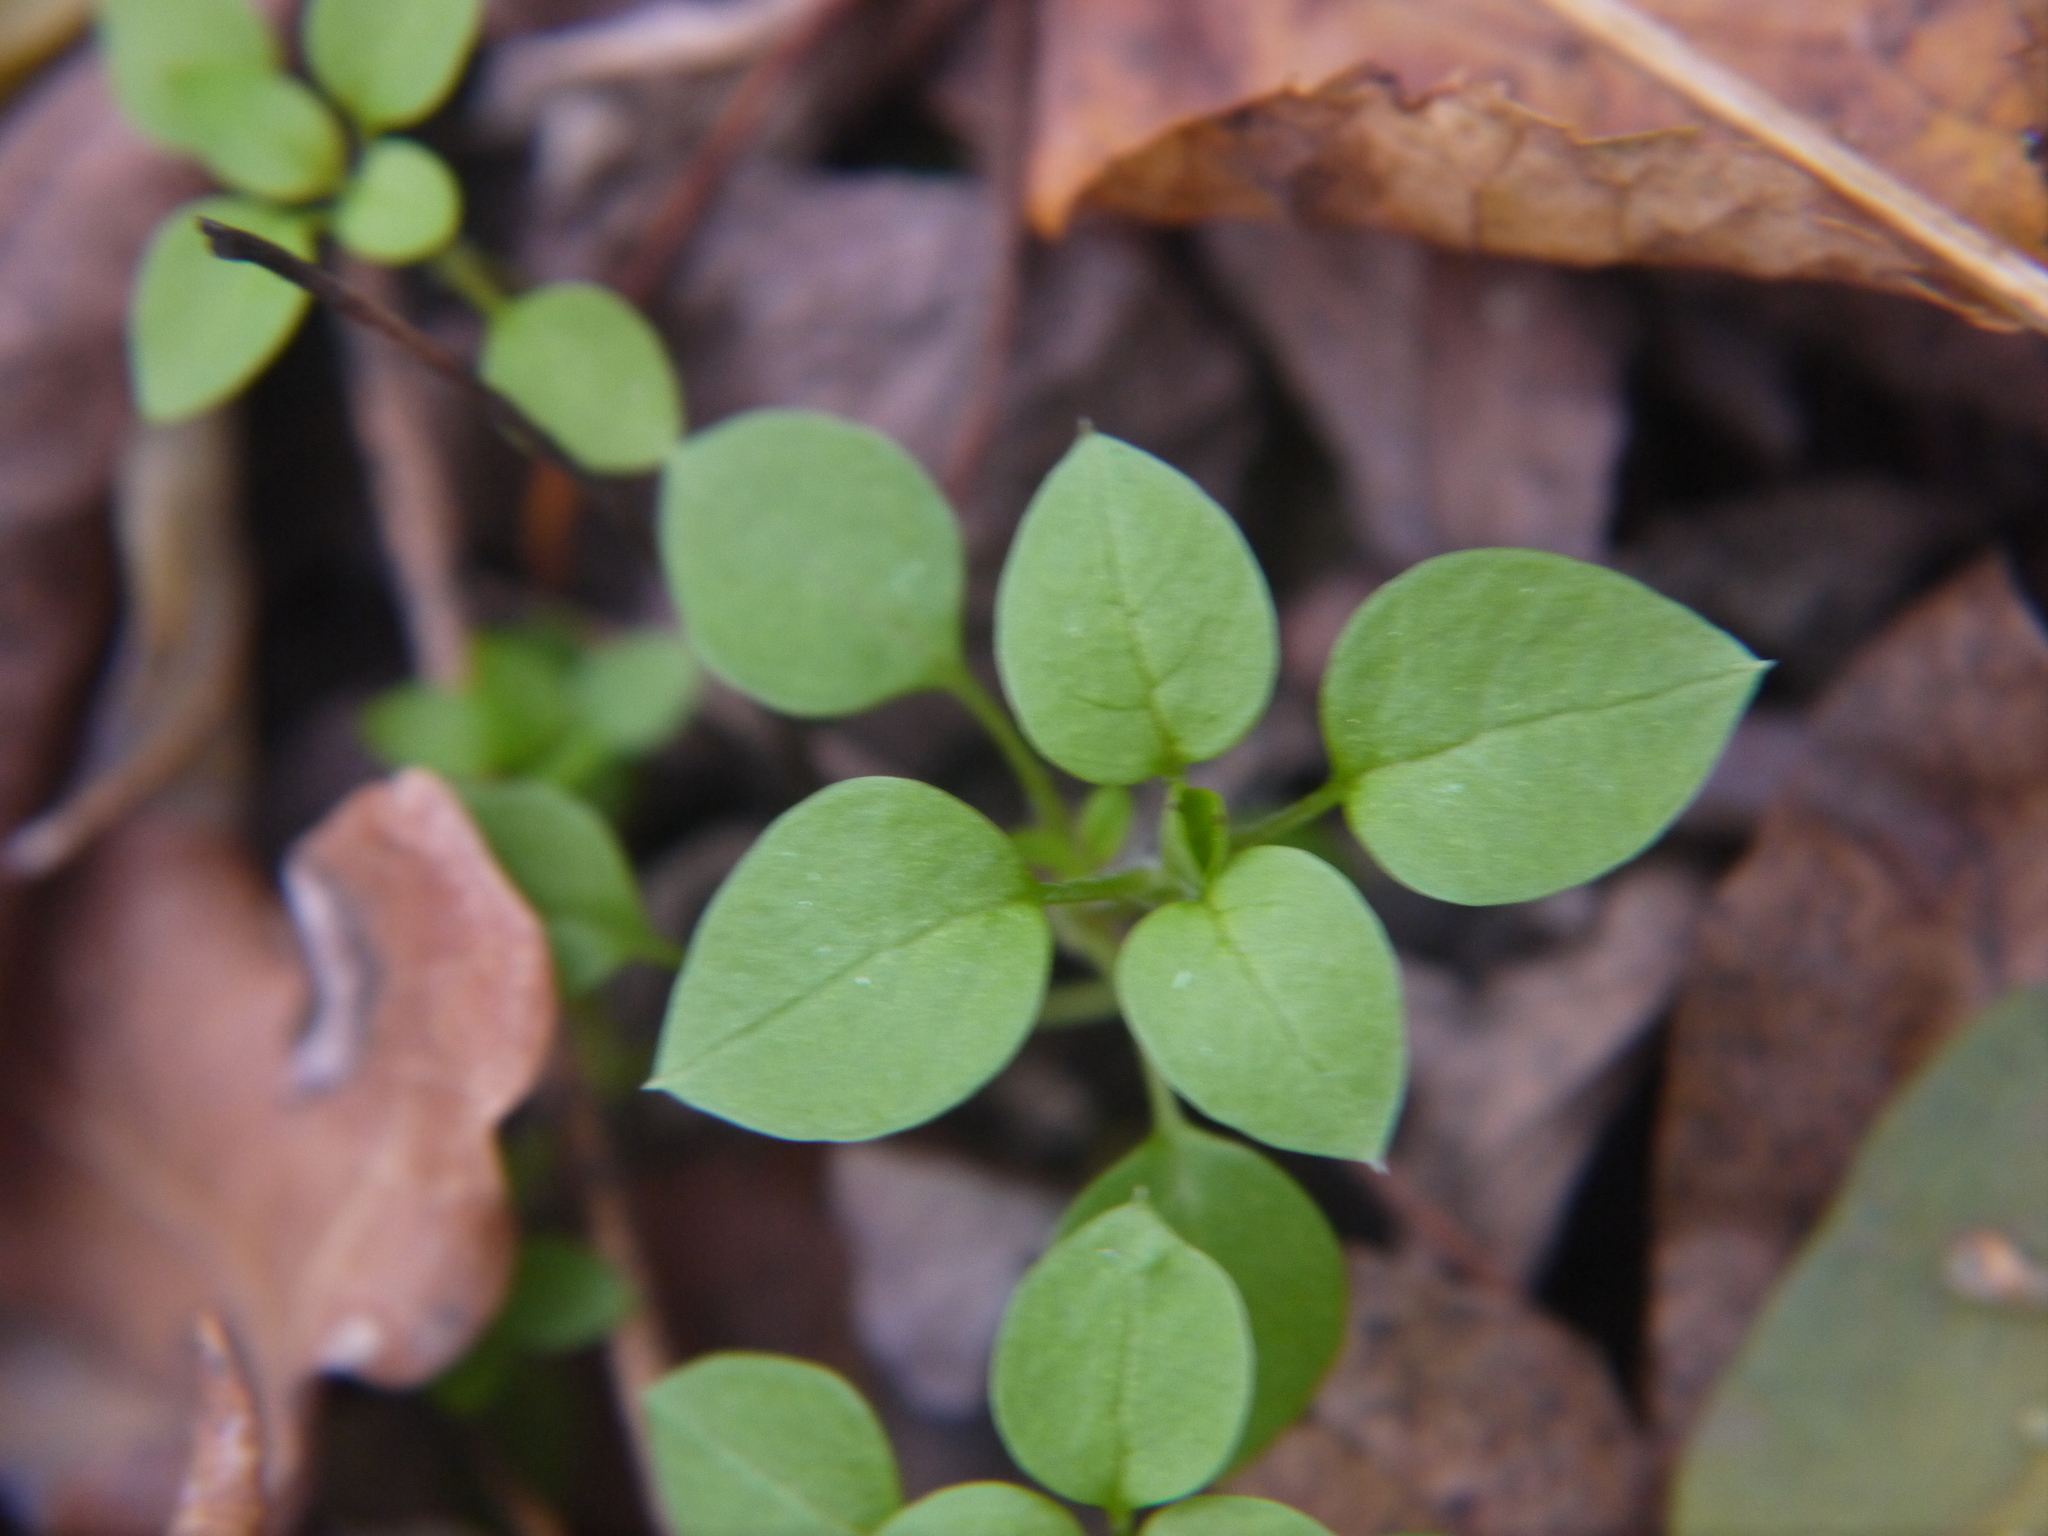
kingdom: Plantae
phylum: Tracheophyta
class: Magnoliopsida
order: Caryophyllales
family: Caryophyllaceae
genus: Stellaria
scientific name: Stellaria media
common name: Common chickweed
